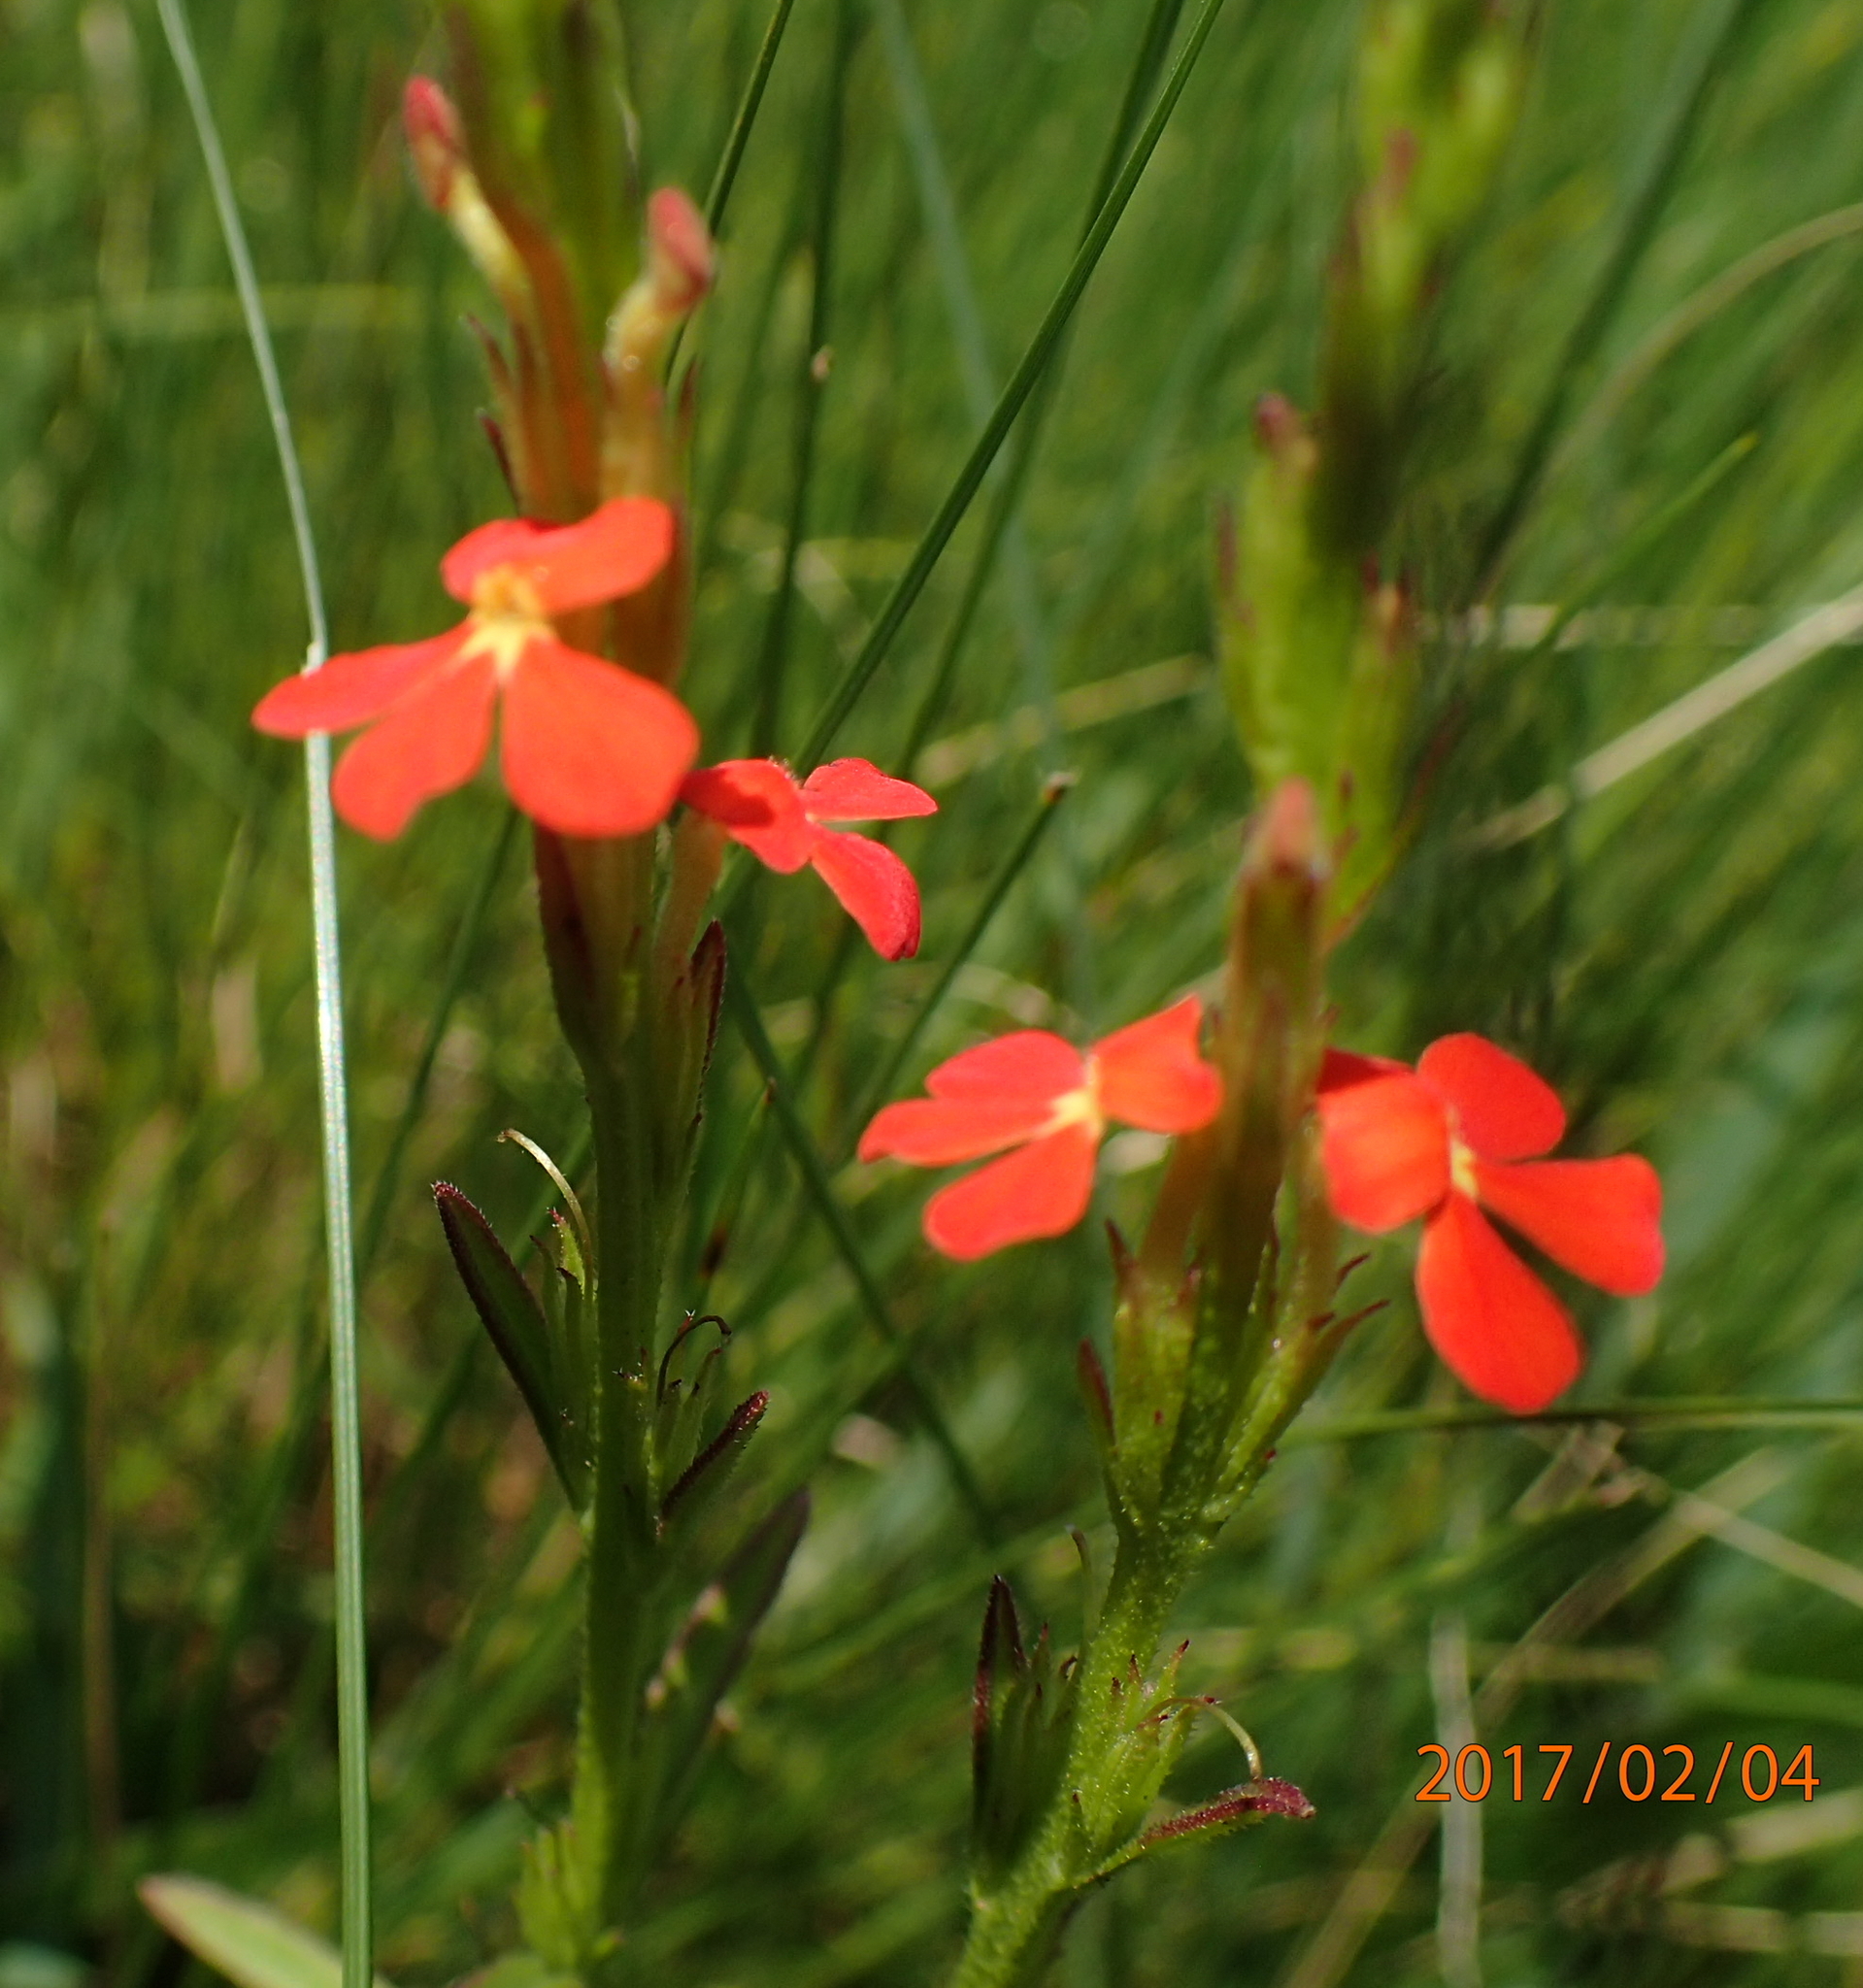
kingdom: Plantae
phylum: Tracheophyta
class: Magnoliopsida
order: Lamiales
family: Orobanchaceae
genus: Striga
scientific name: Striga asiatica
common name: Asiatic witchweed
